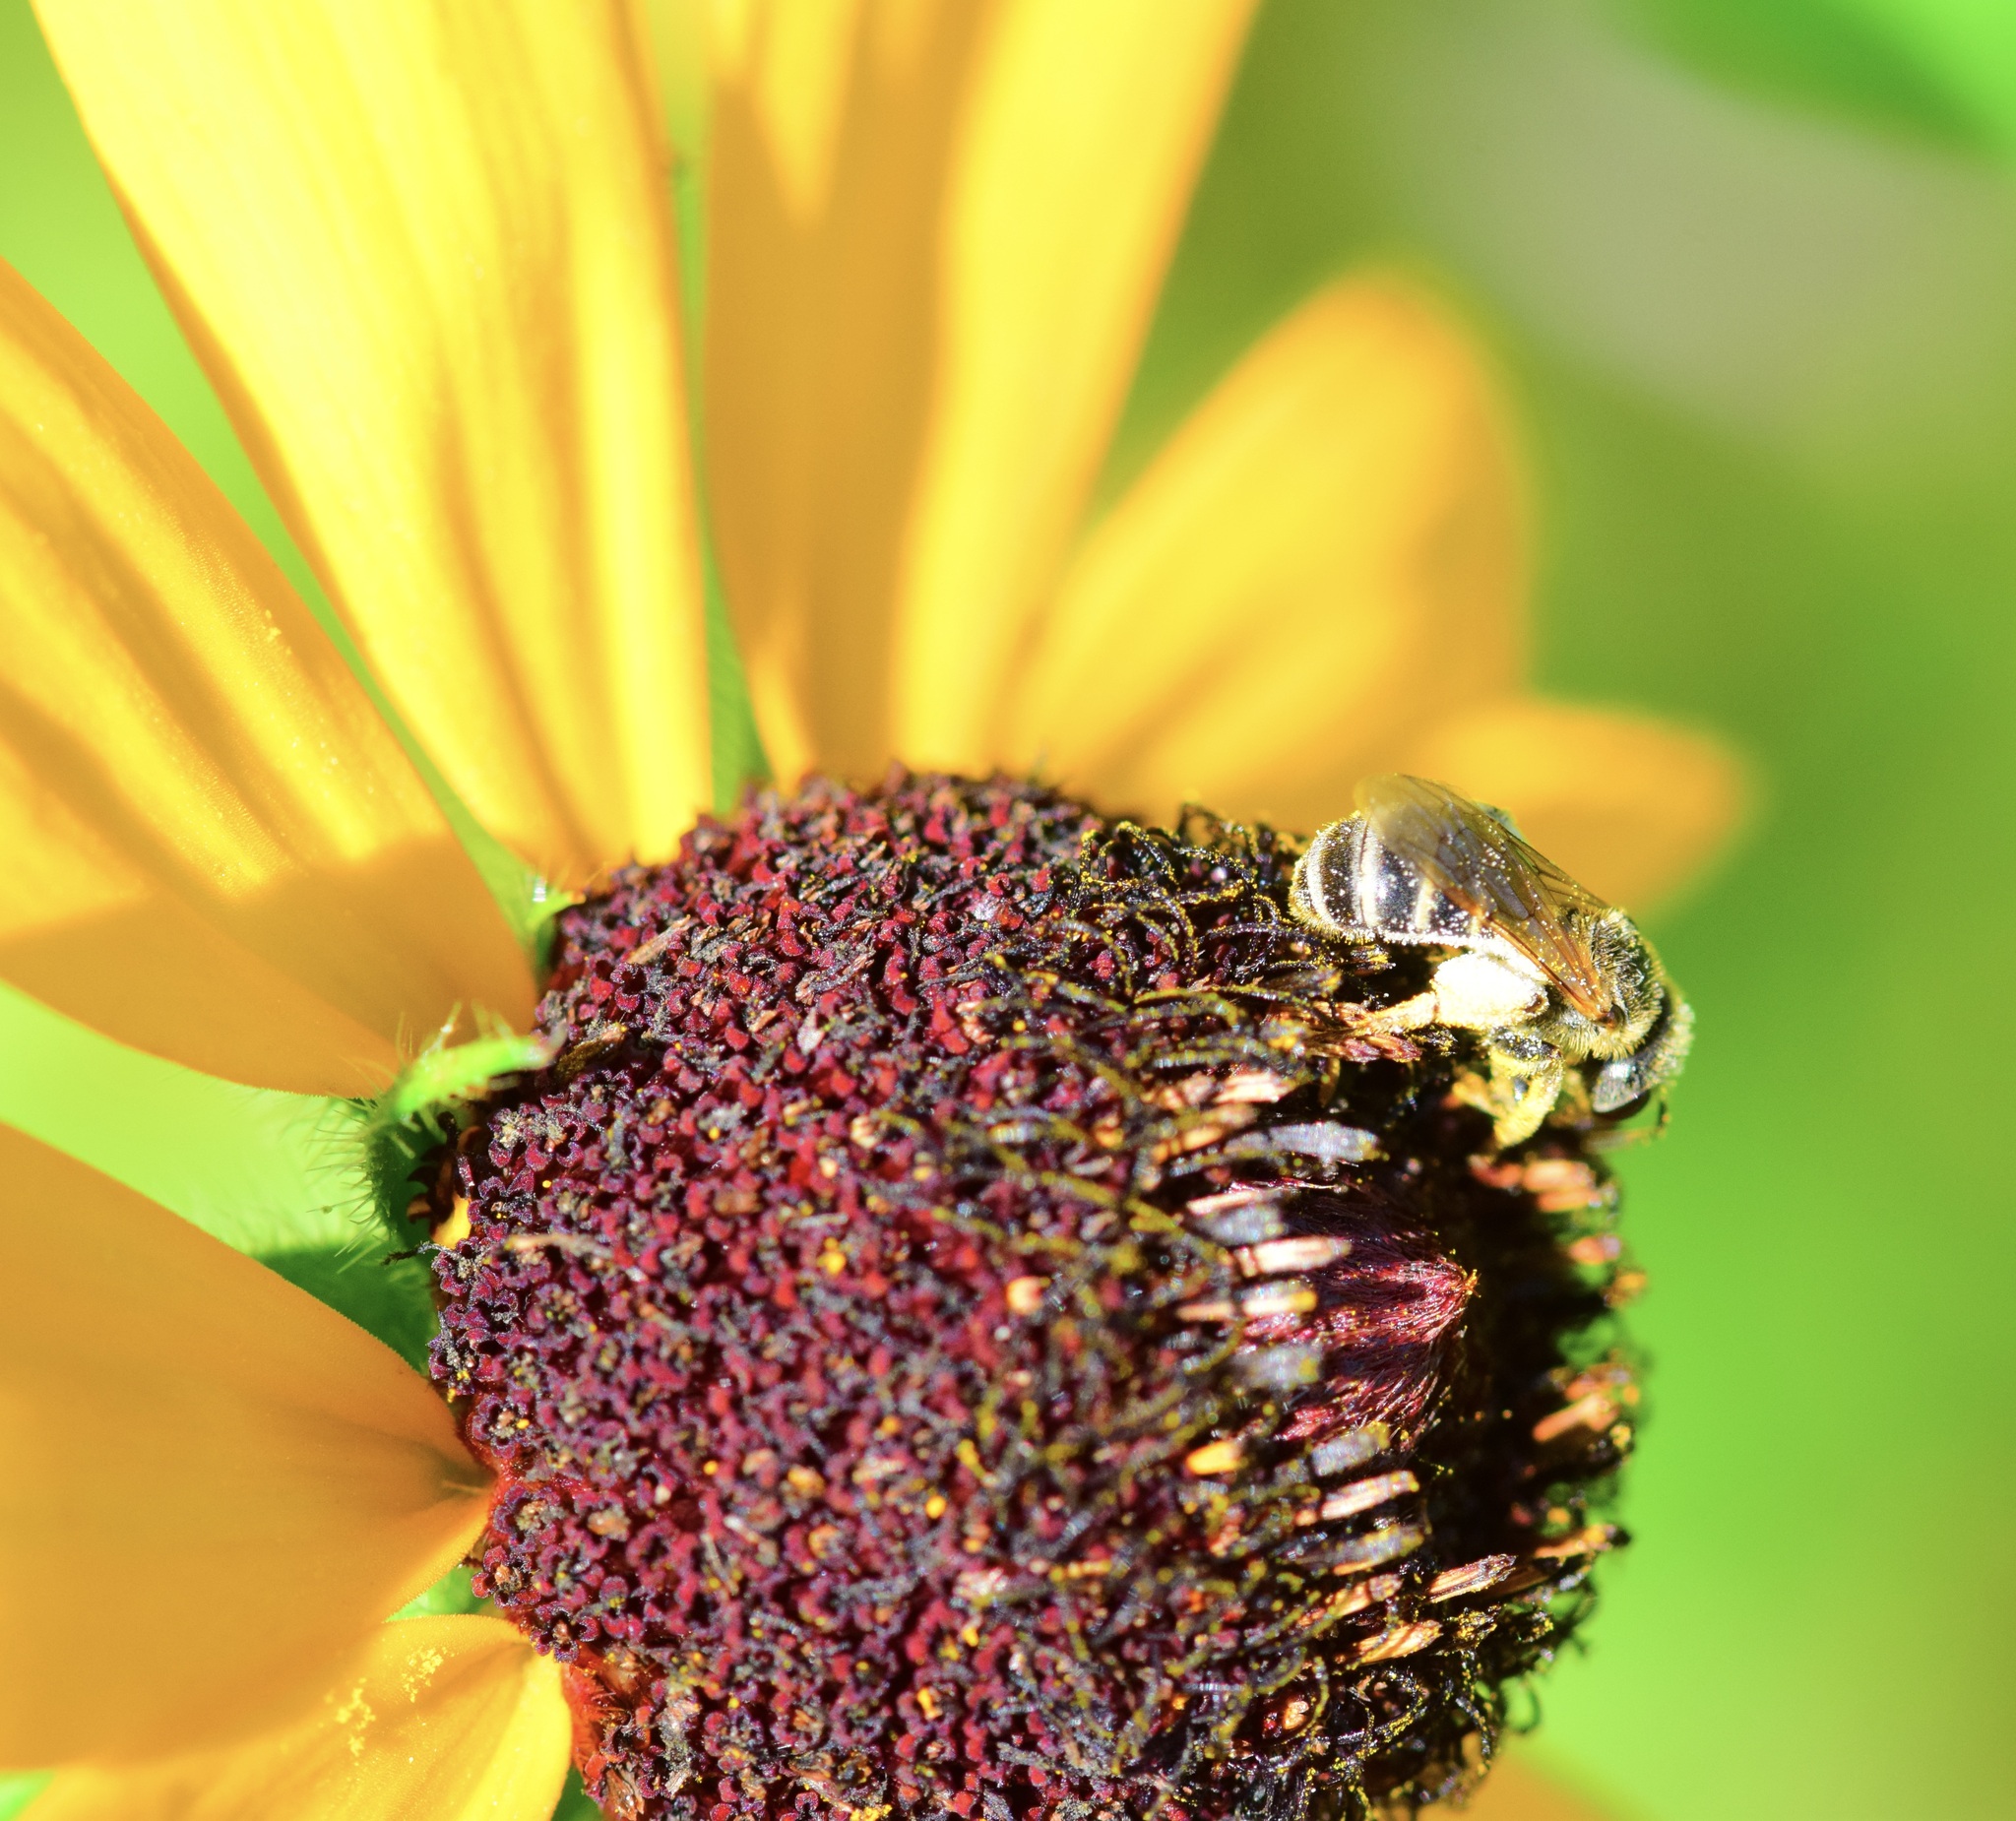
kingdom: Animalia
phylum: Arthropoda
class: Insecta
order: Hymenoptera
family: Halictidae
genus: Halictus
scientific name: Halictus ligatus
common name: Ligated furrow bee
